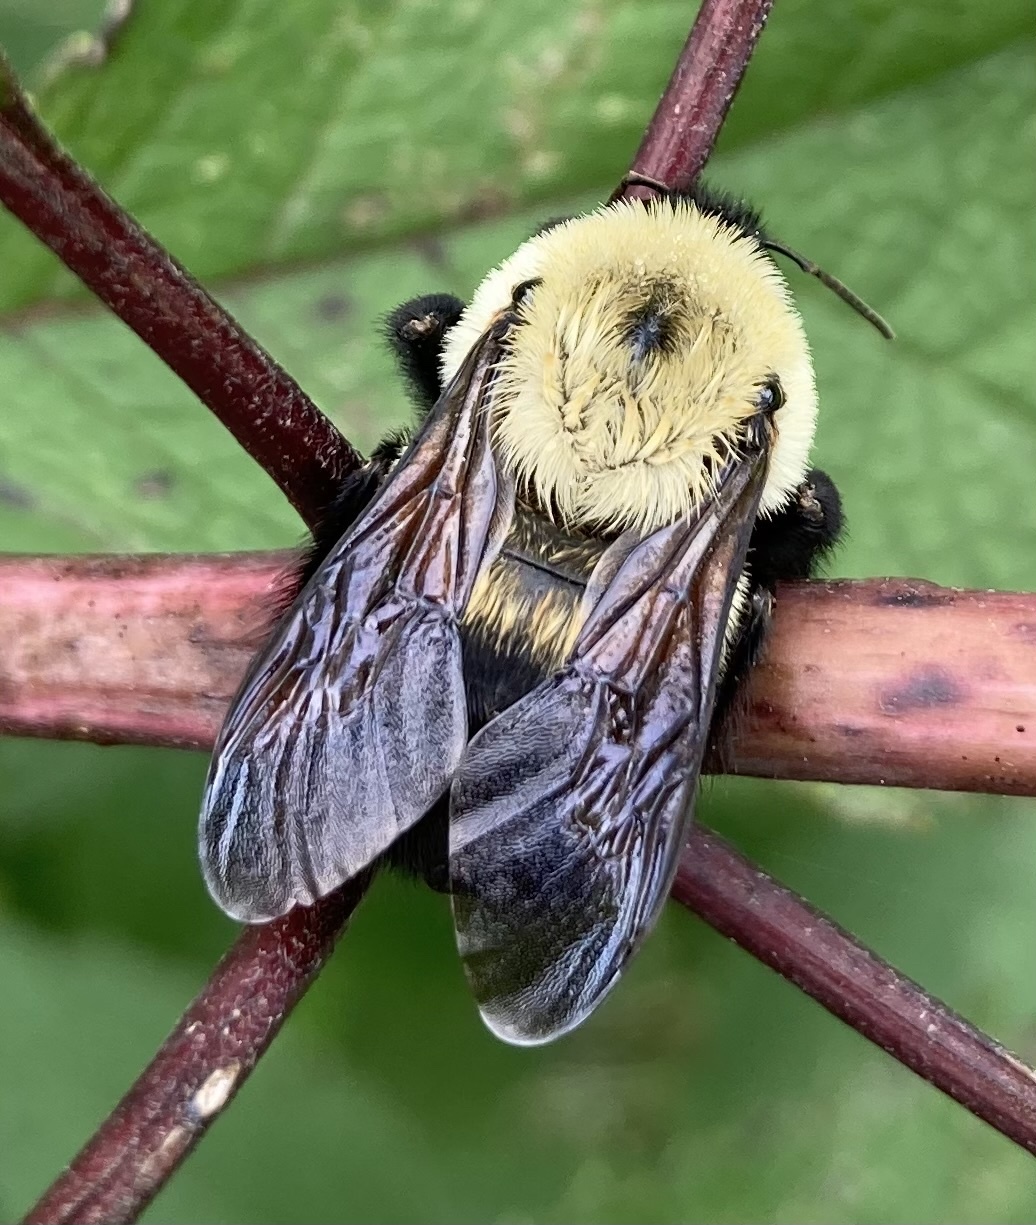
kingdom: Animalia
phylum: Arthropoda
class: Insecta
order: Hymenoptera
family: Apidae
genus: Bombus
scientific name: Bombus griseocollis
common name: Brown-belted bumble bee
